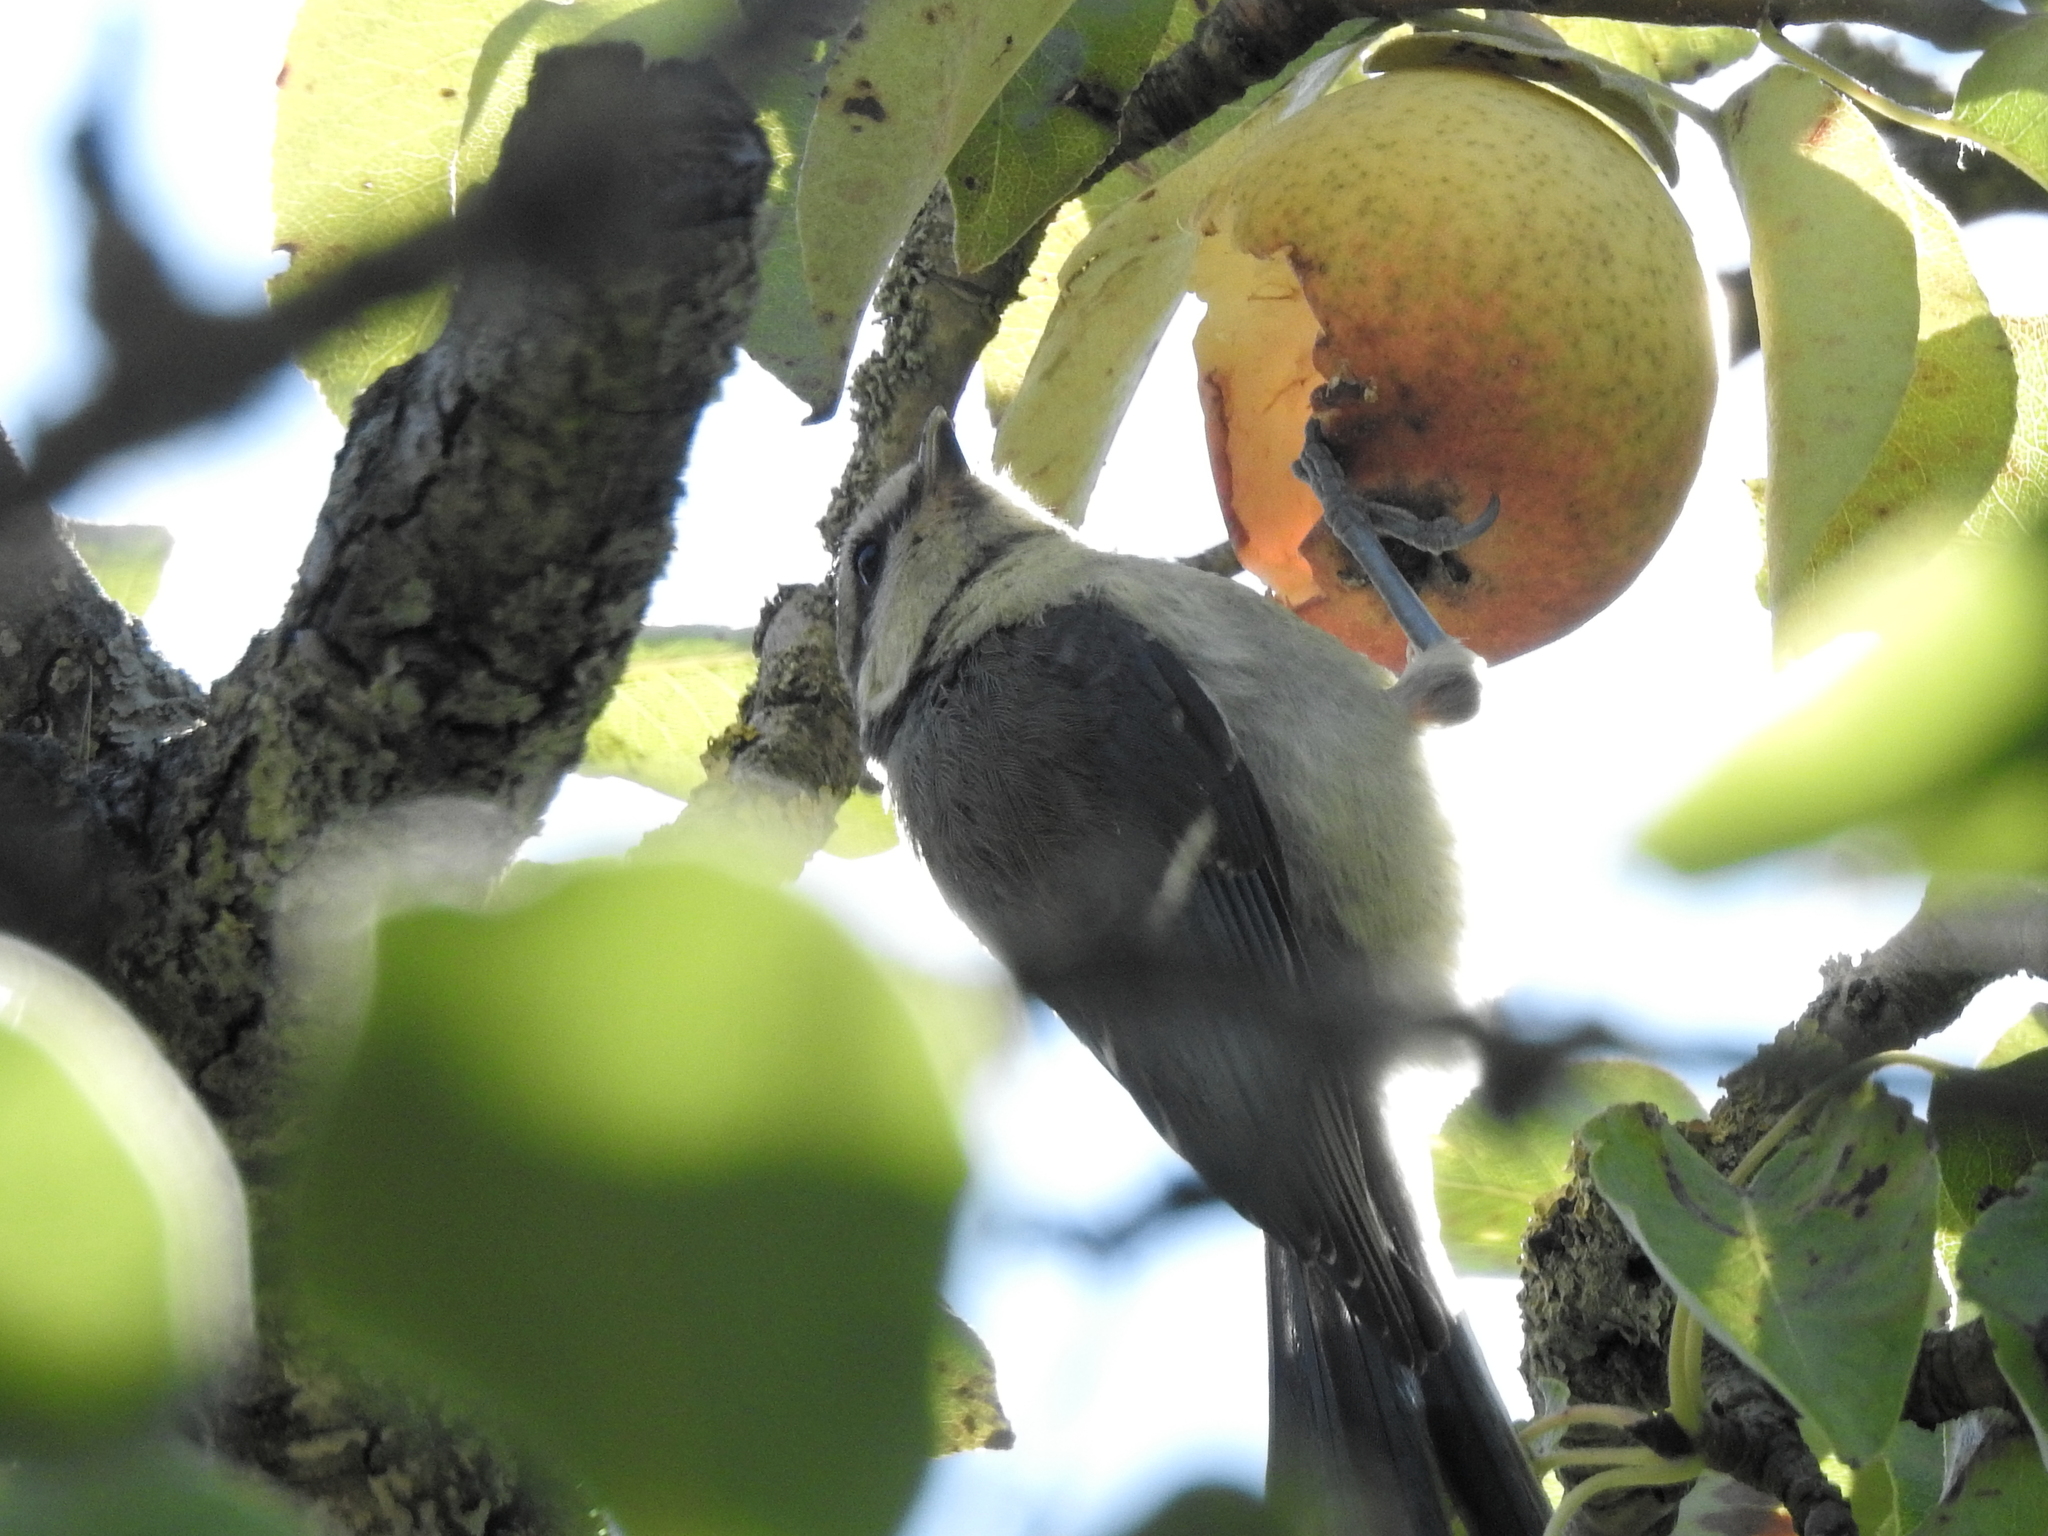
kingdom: Animalia
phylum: Chordata
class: Aves
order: Passeriformes
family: Paridae
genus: Cyanistes
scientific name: Cyanistes caeruleus
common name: Eurasian blue tit
